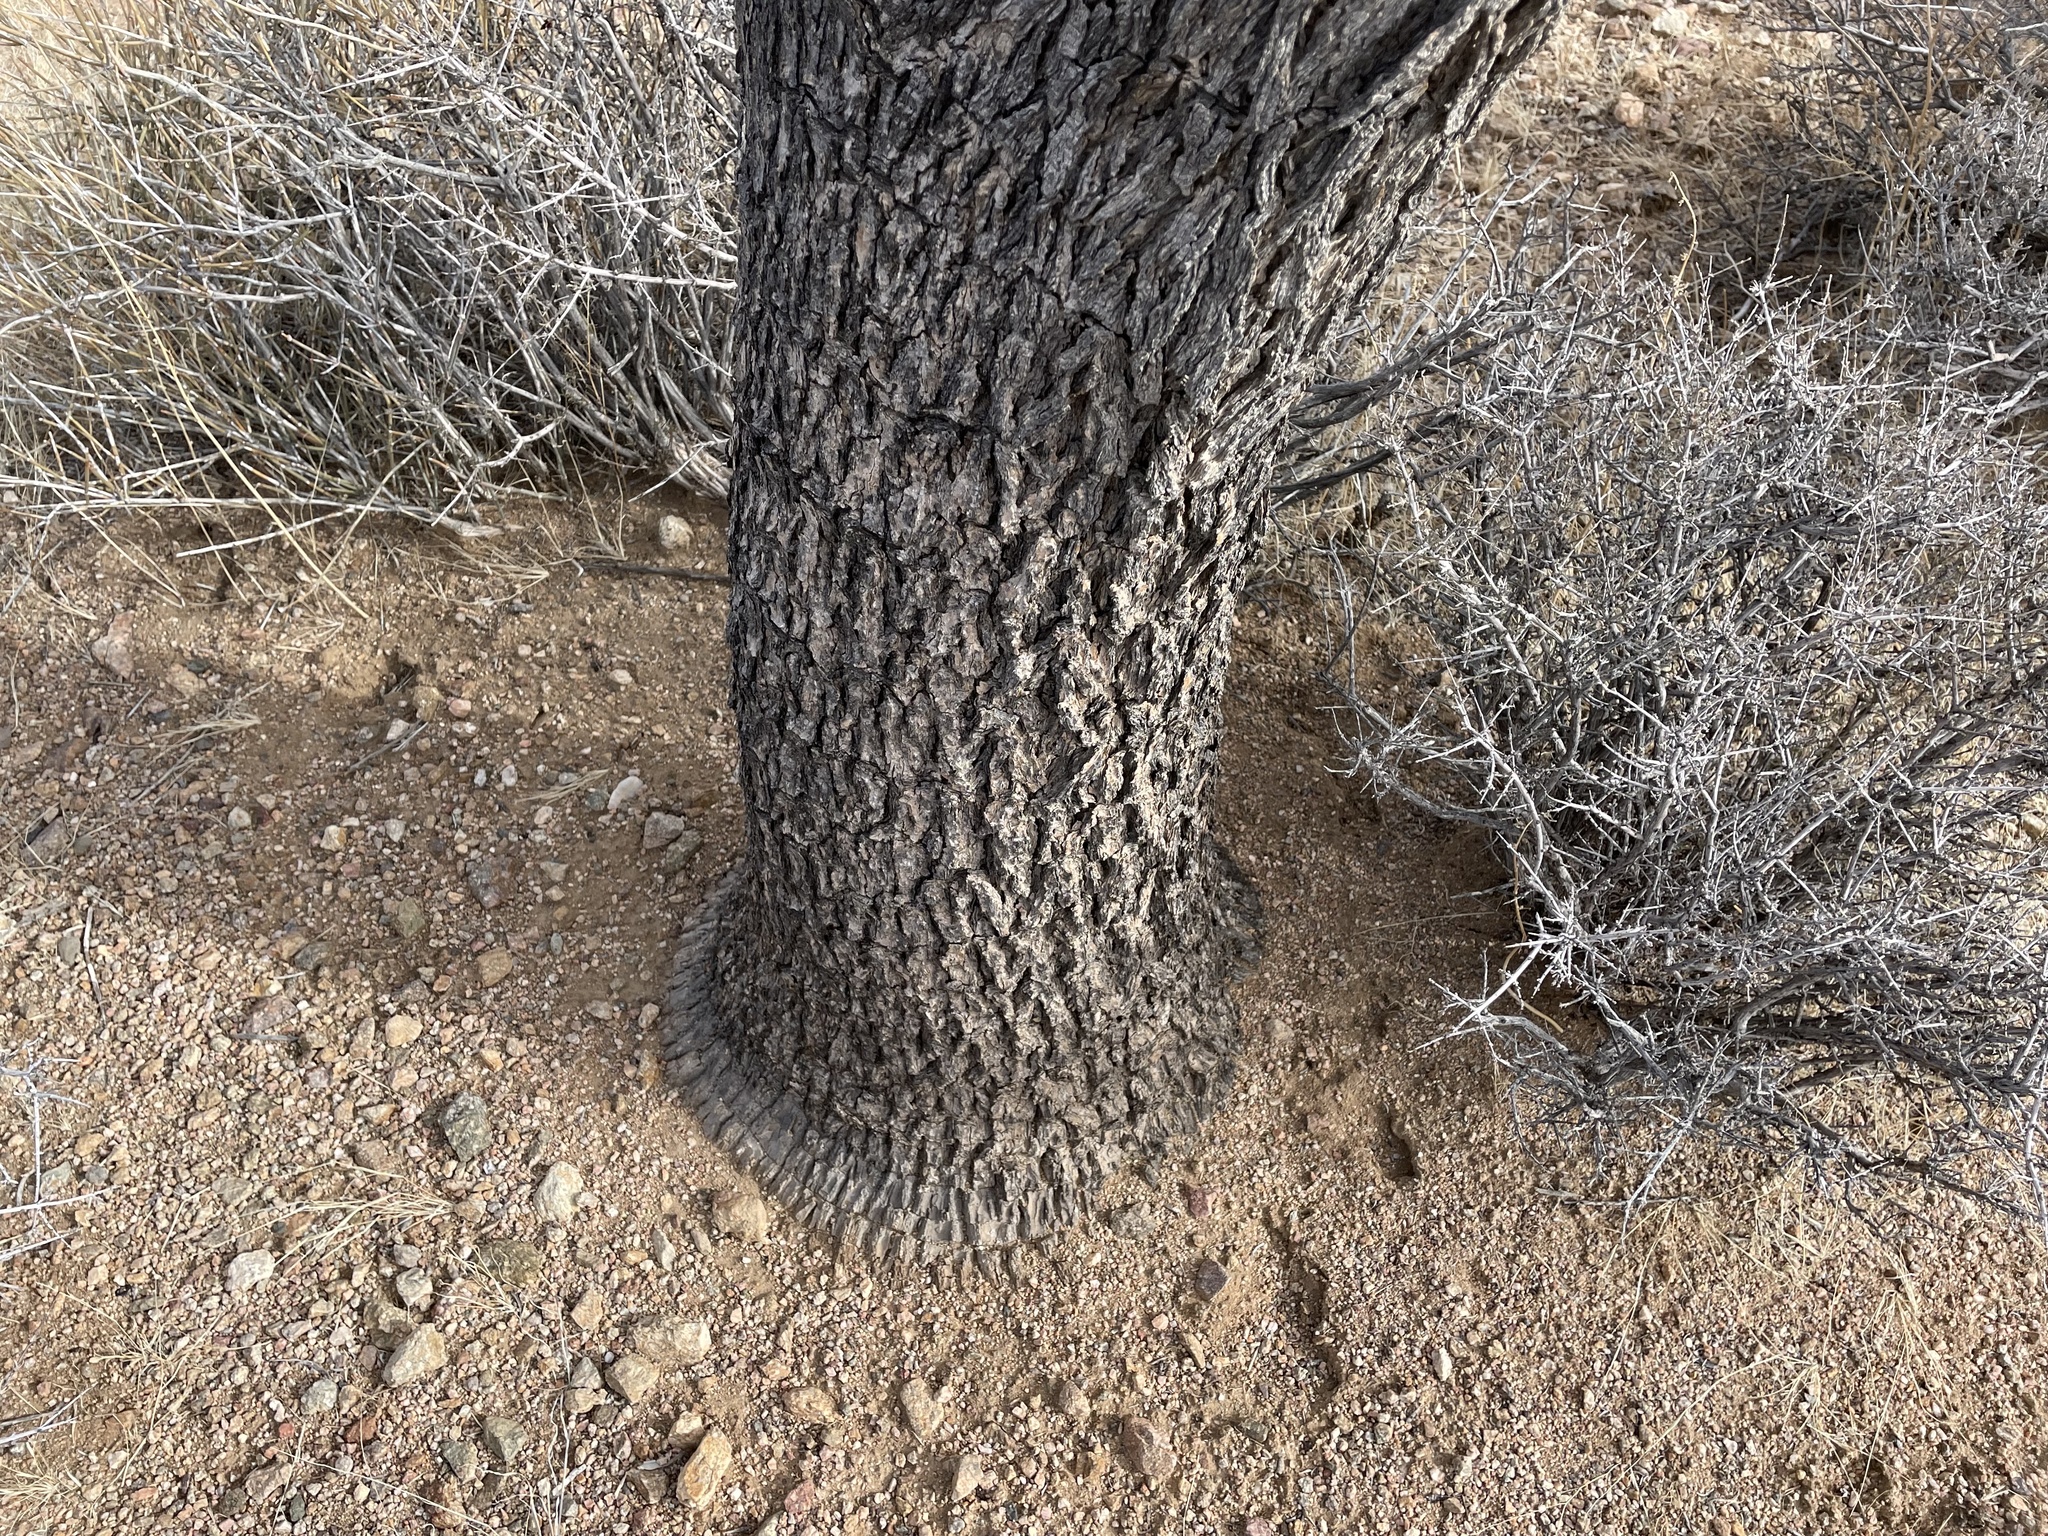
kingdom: Plantae
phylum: Tracheophyta
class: Liliopsida
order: Asparagales
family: Asparagaceae
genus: Yucca
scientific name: Yucca brevifolia
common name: Joshua tree
